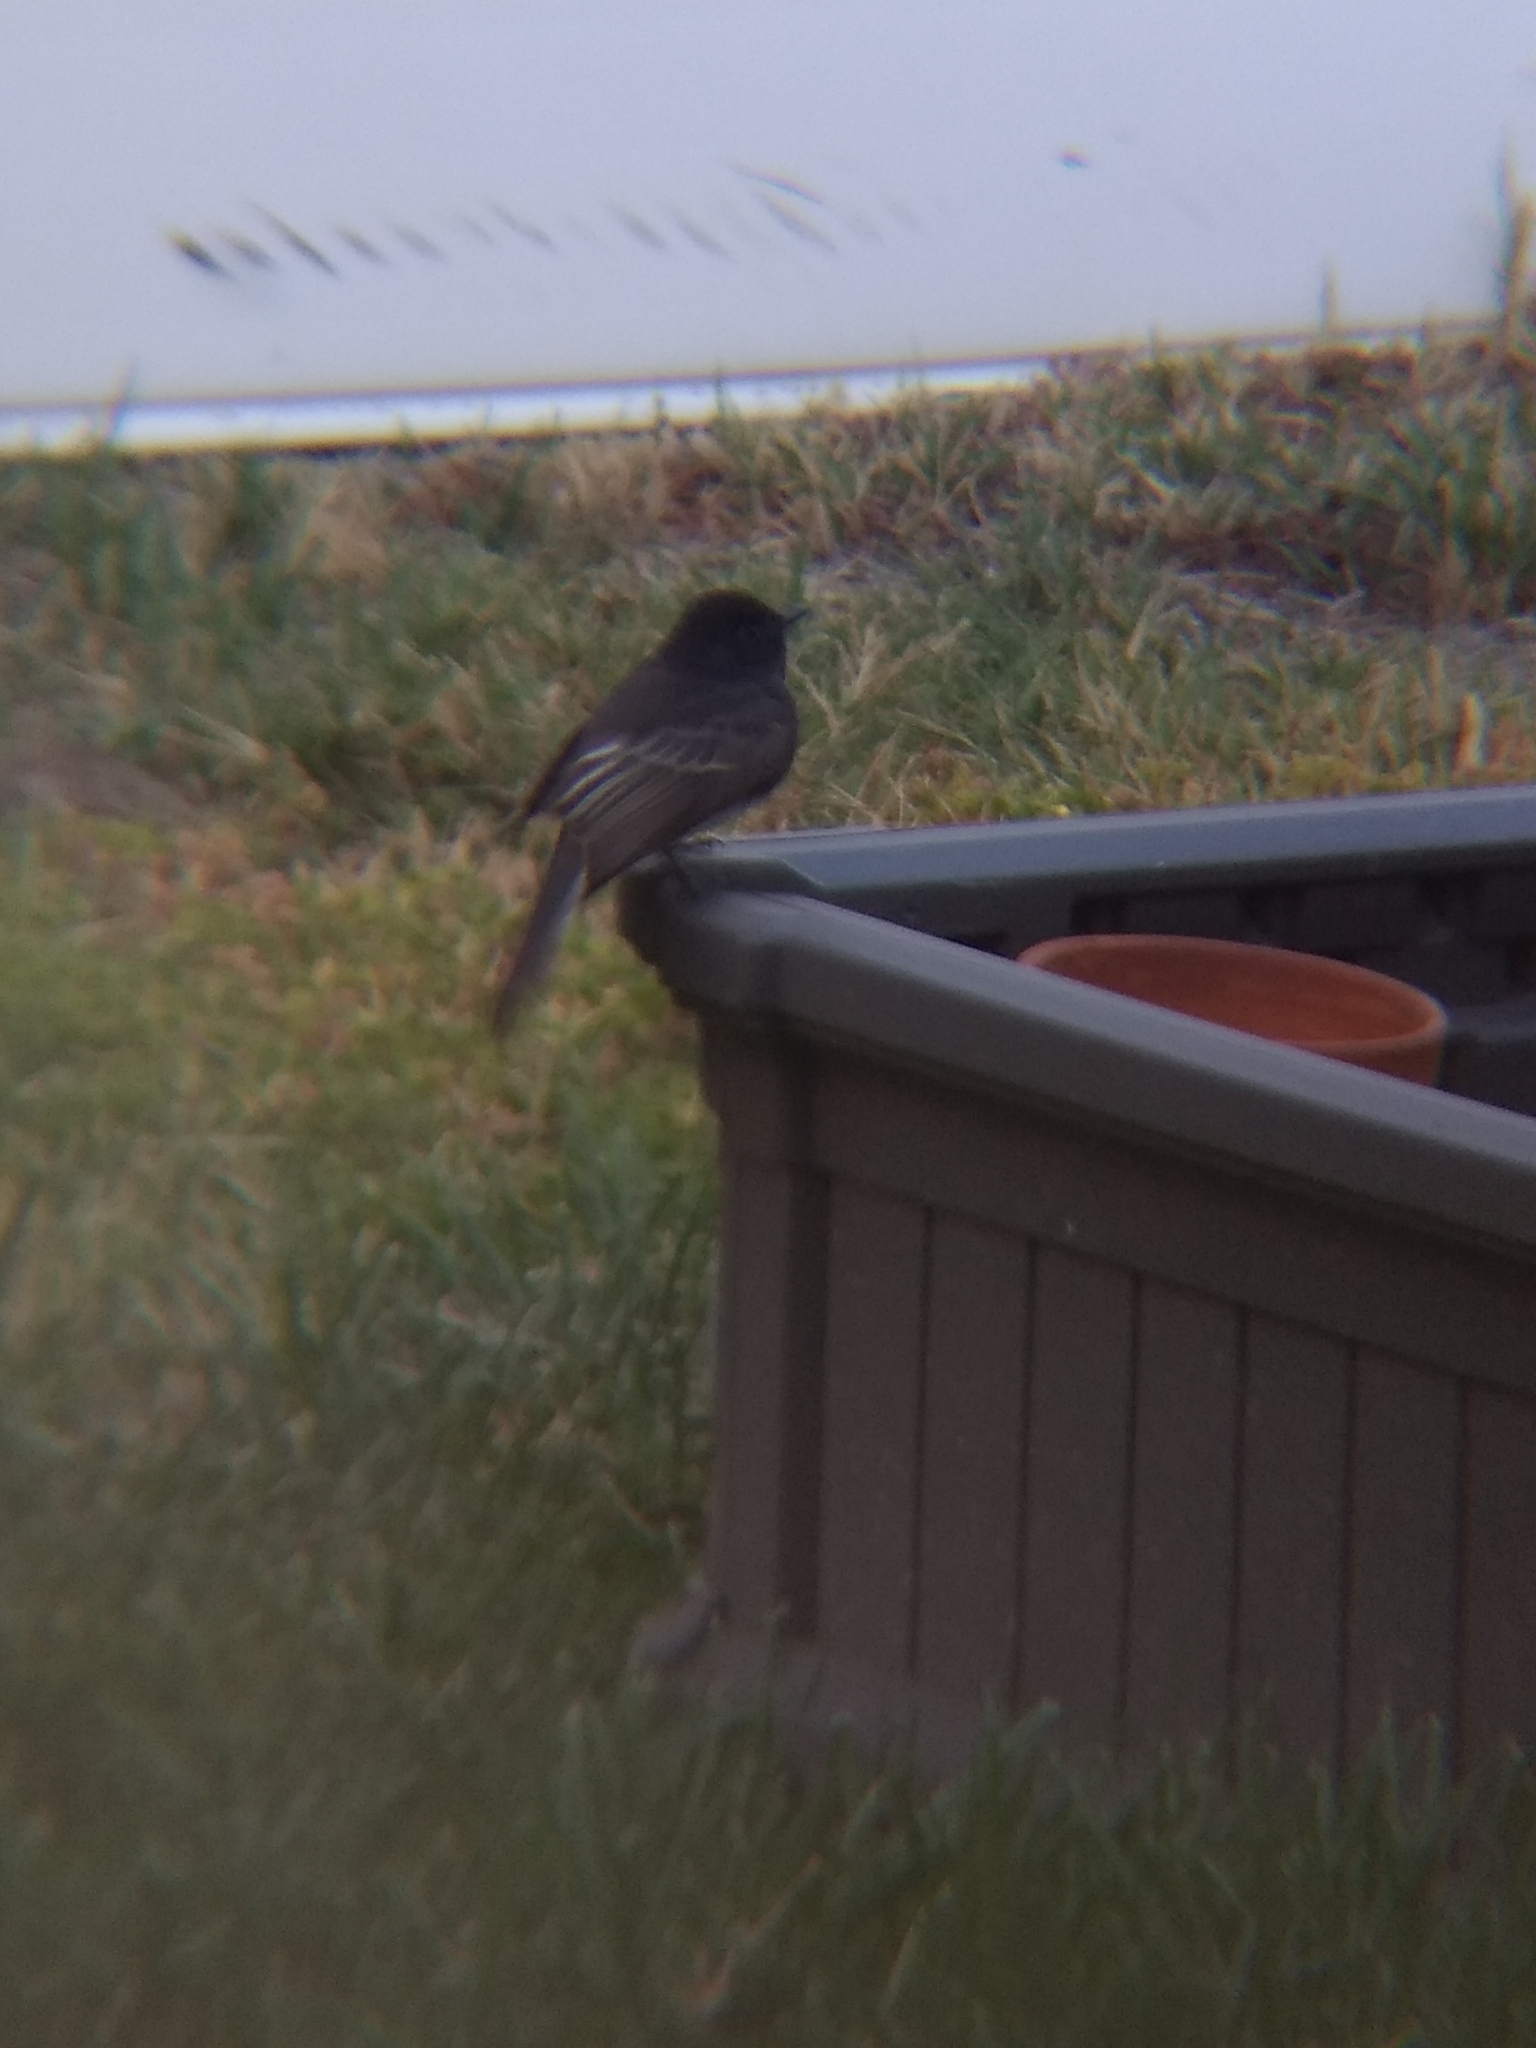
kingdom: Animalia
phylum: Chordata
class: Aves
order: Passeriformes
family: Tyrannidae
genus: Sayornis
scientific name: Sayornis nigricans
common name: Black phoebe
